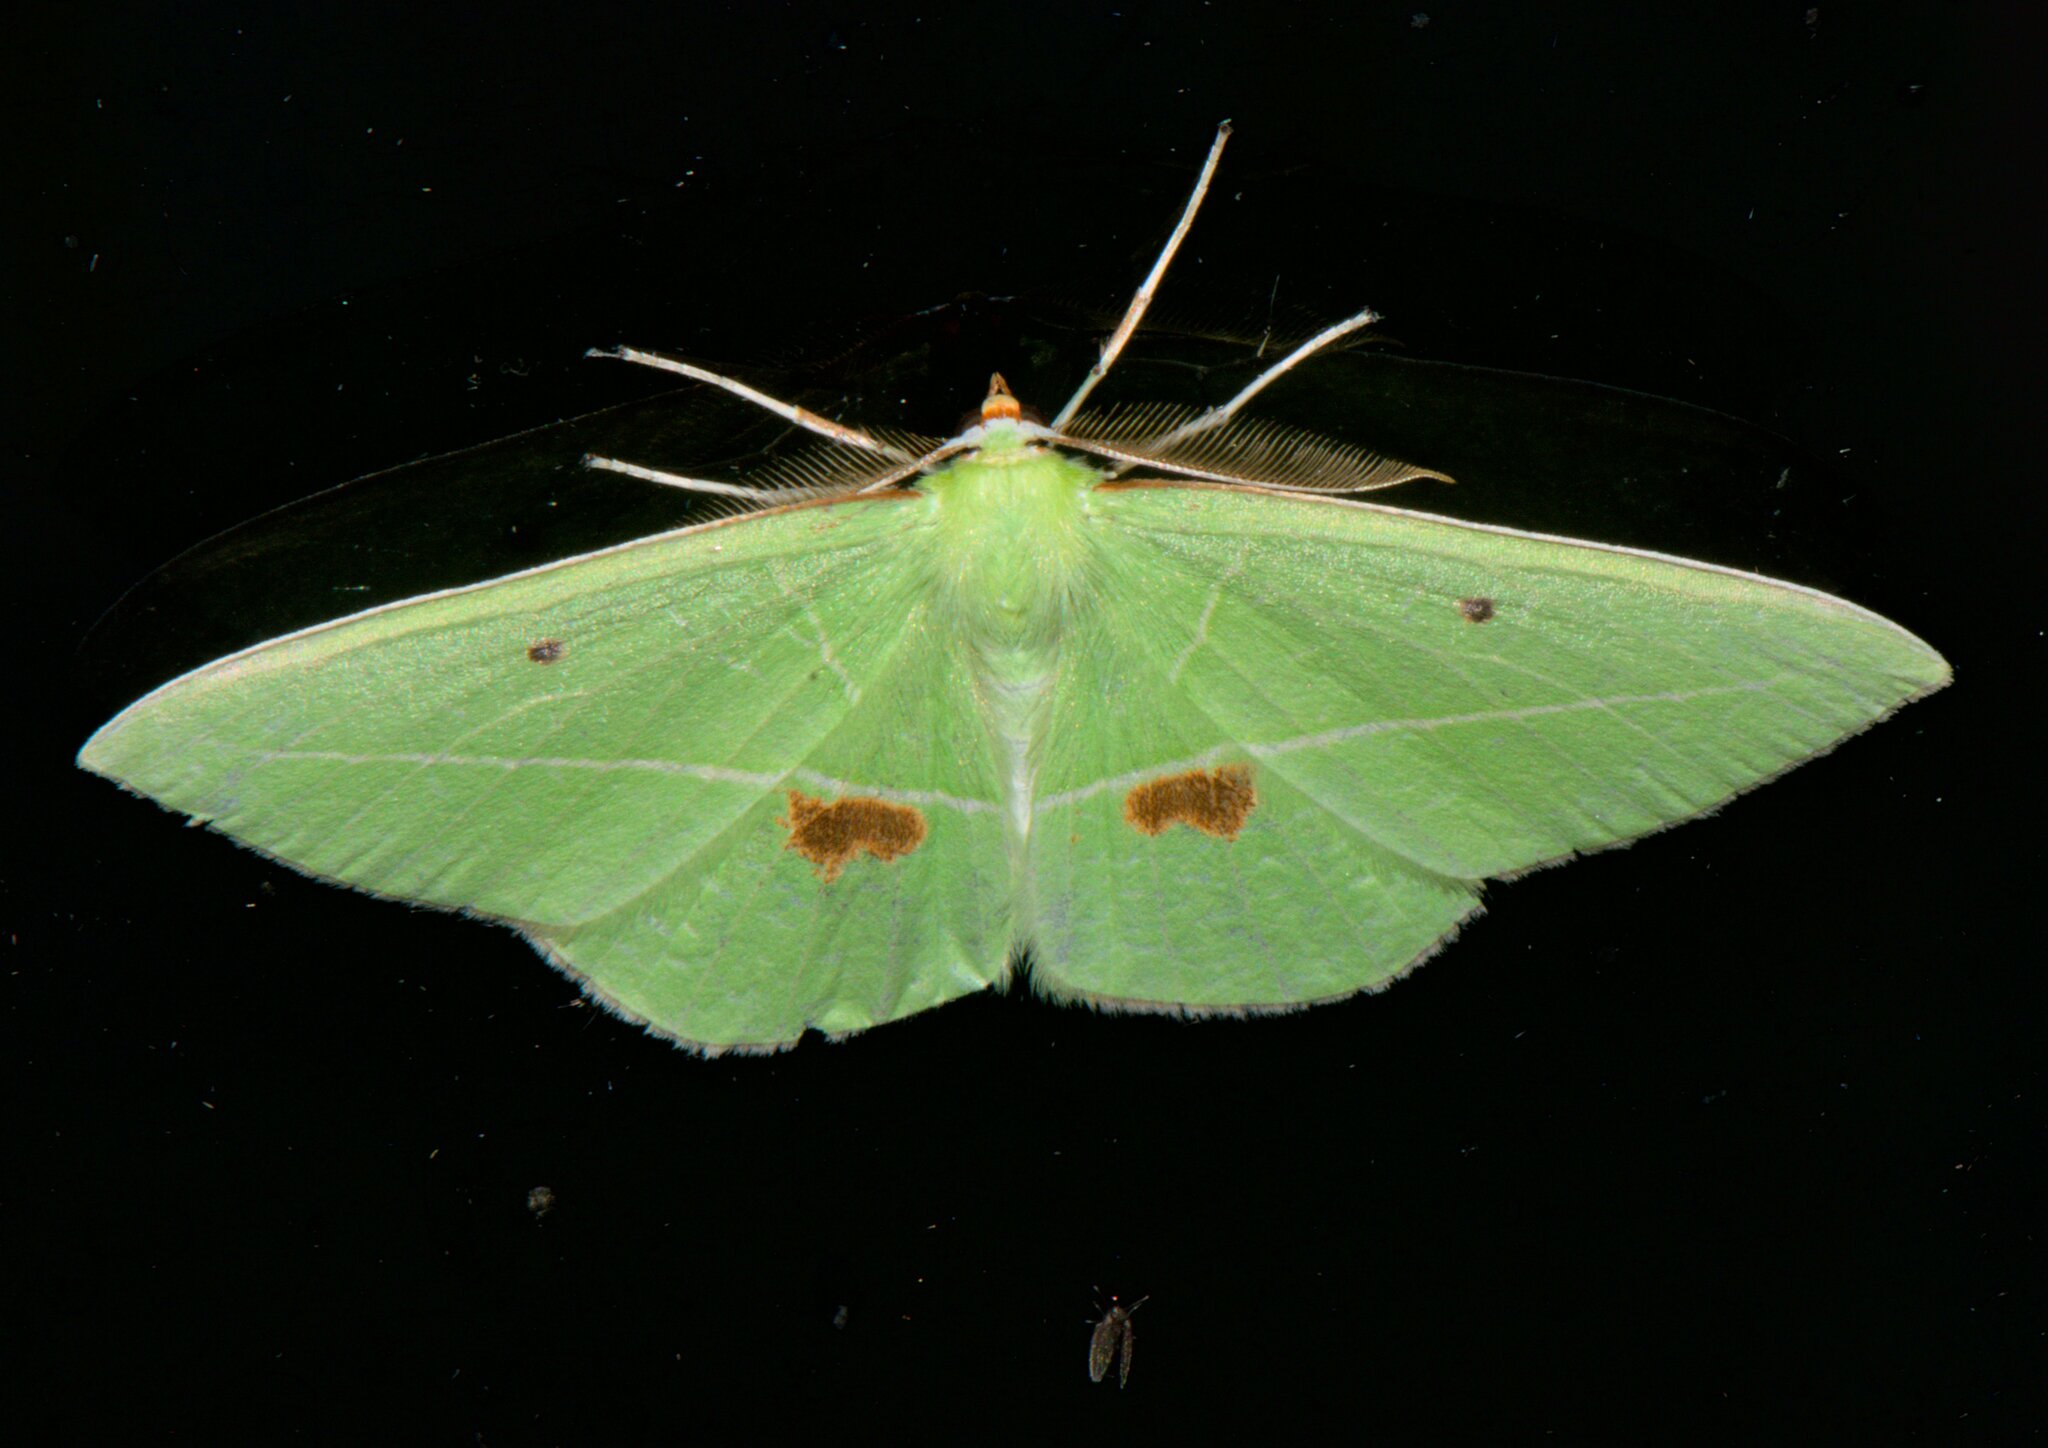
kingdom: Animalia
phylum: Arthropoda
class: Insecta
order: Lepidoptera
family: Geometridae
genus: Tanaoctenia
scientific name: Tanaoctenia haliaria
